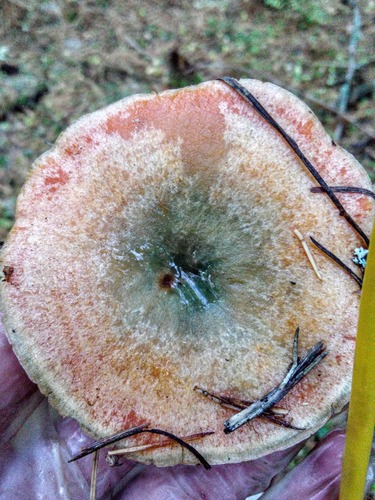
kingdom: Fungi
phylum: Basidiomycota
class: Agaricomycetes
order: Russulales
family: Russulaceae
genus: Lactarius
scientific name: Lactarius deliciosus
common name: Saffron milk-cap
